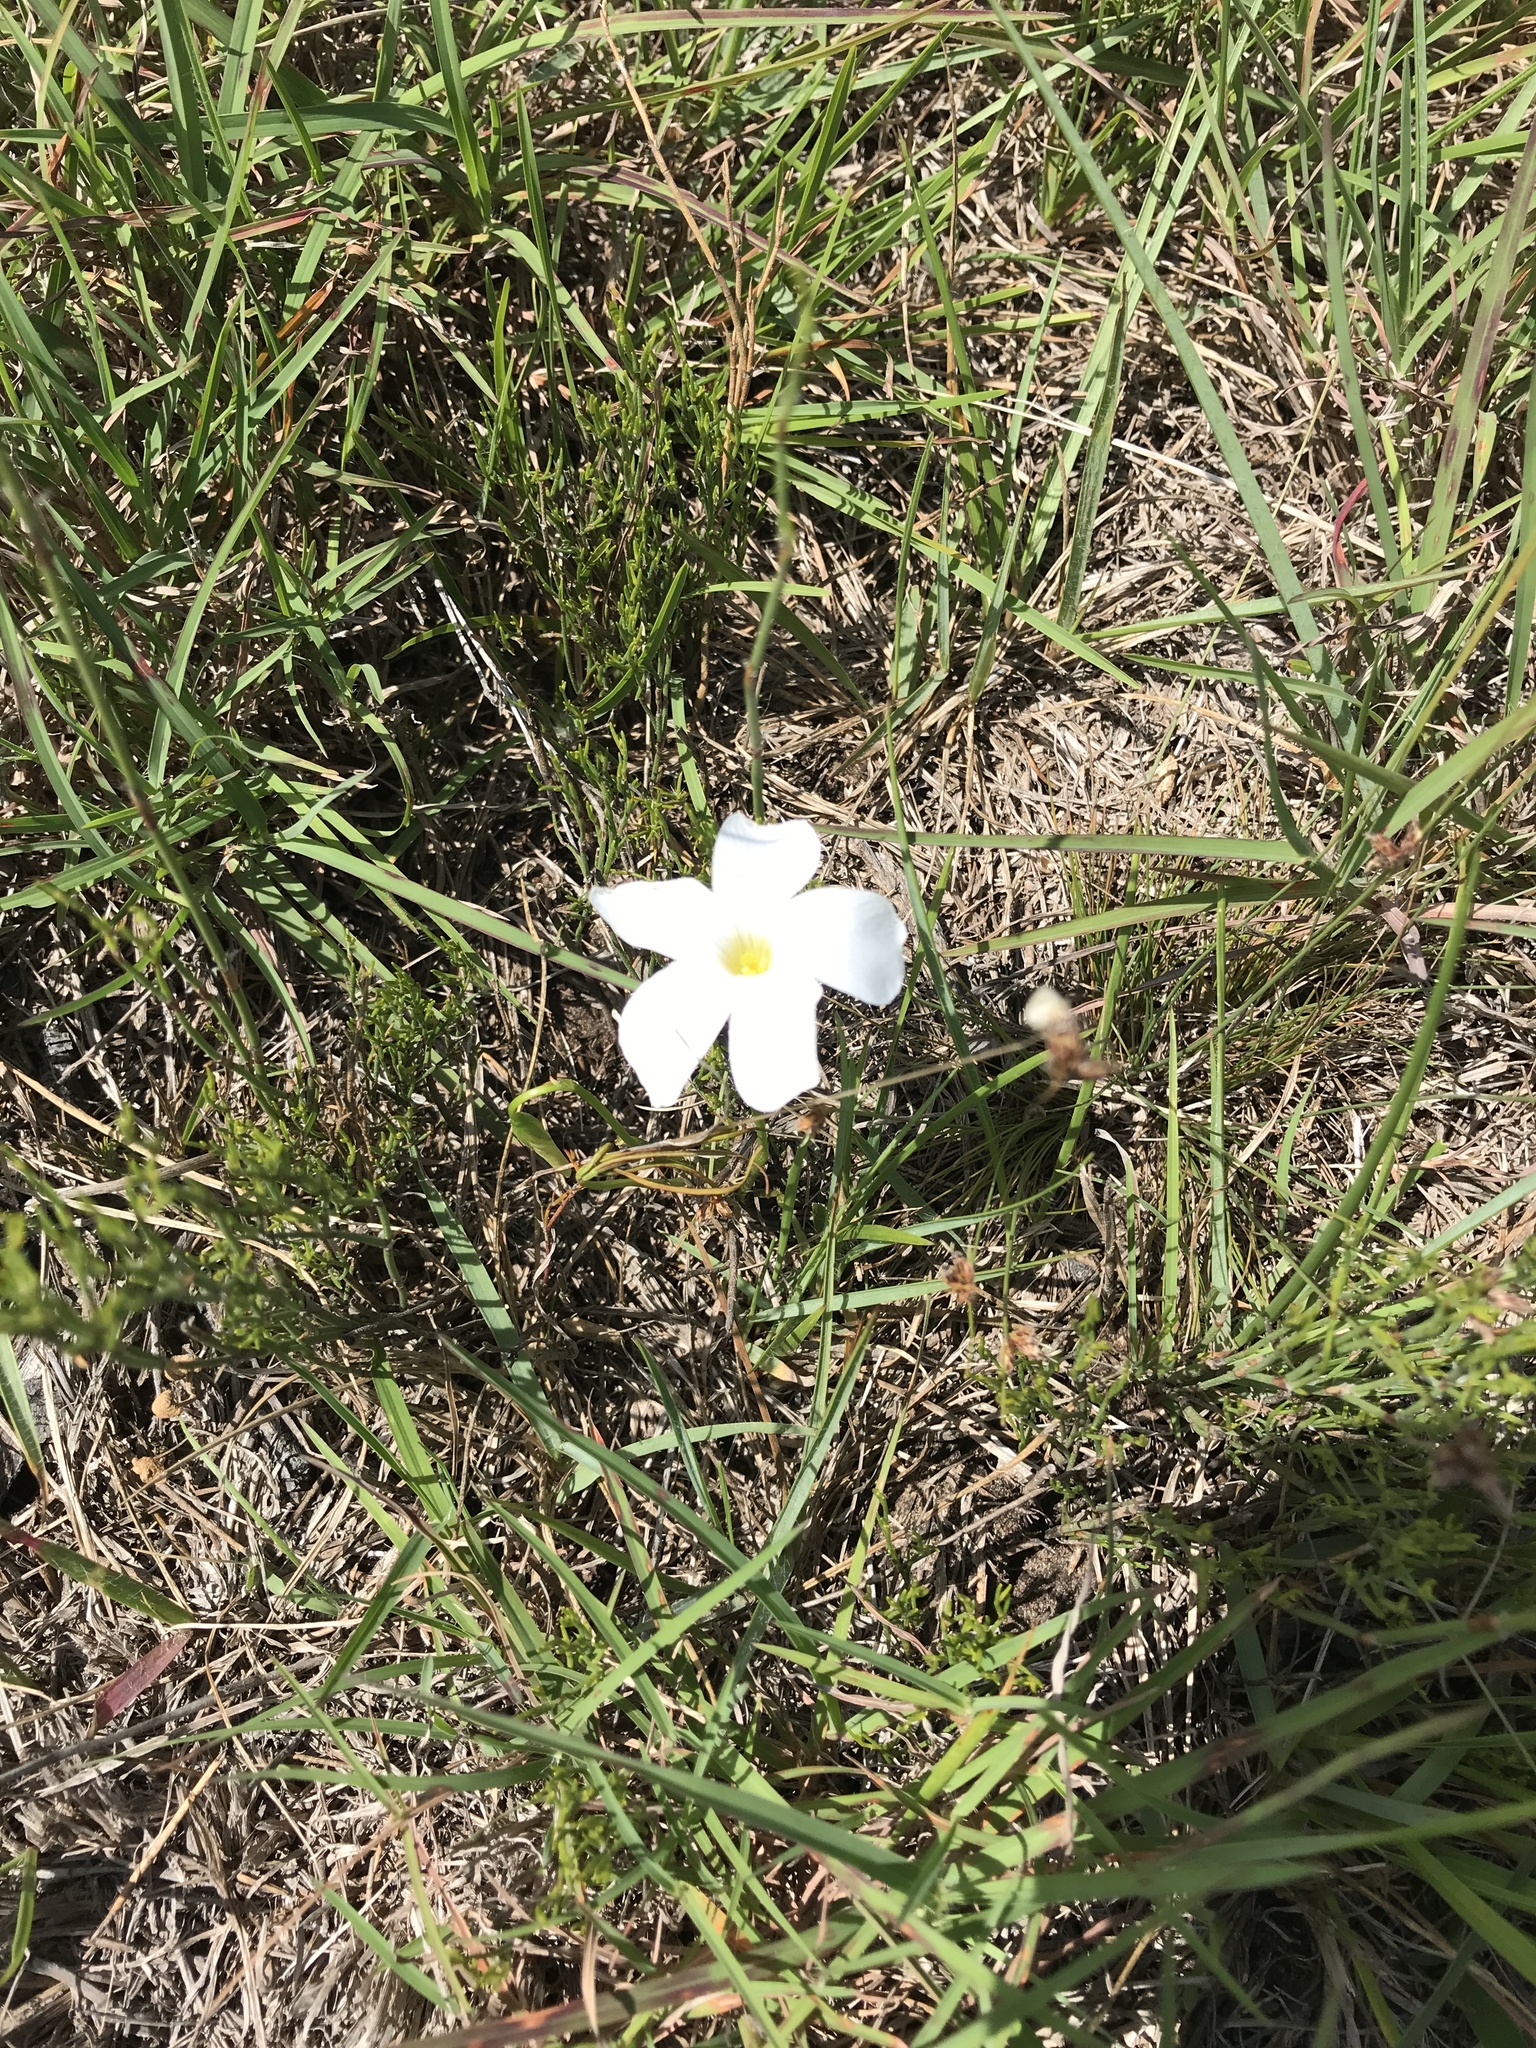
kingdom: Plantae
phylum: Tracheophyta
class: Magnoliopsida
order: Oxalidales
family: Oxalidaceae
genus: Oxalis
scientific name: Oxalis smithiana
